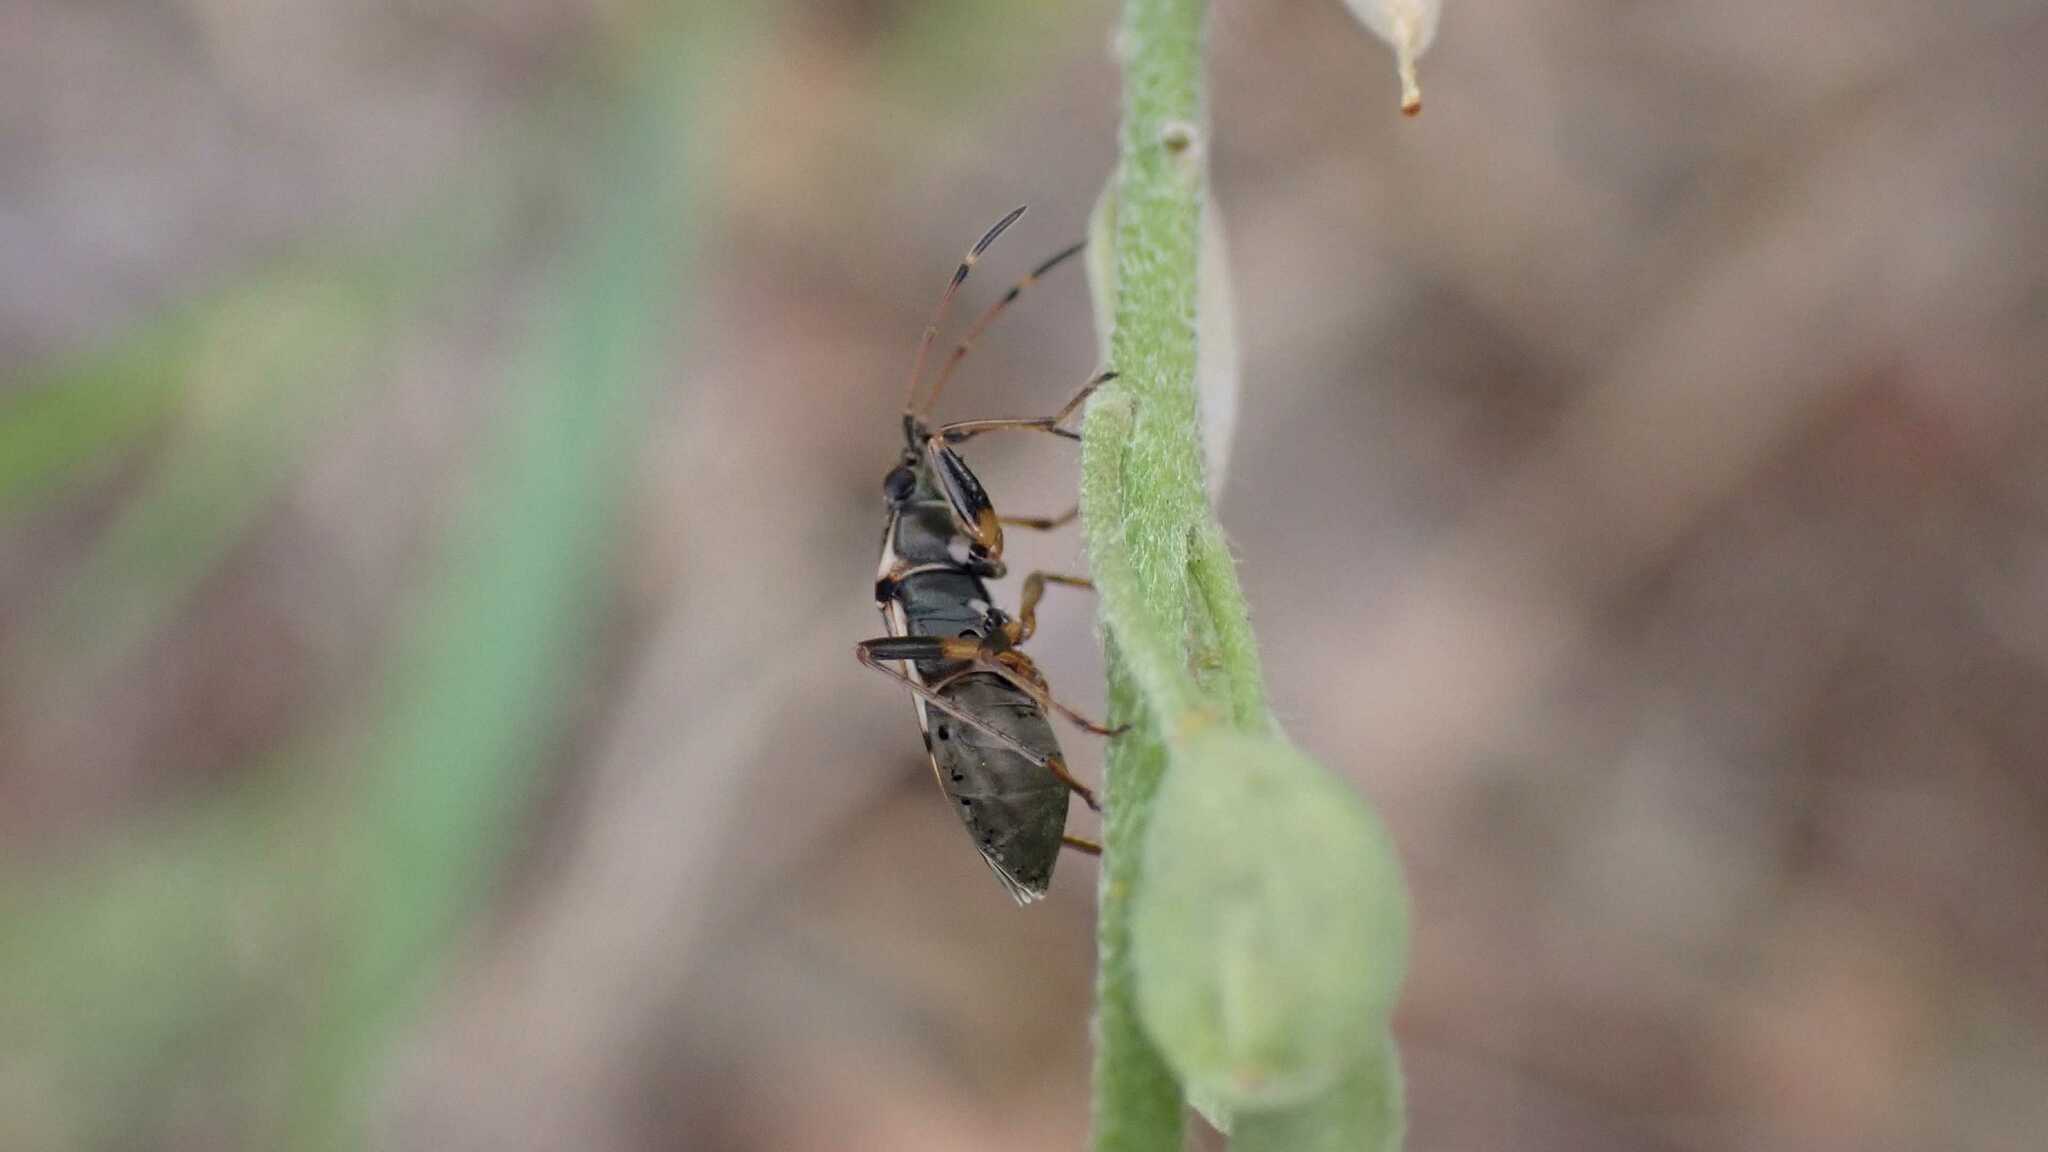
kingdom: Animalia
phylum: Arthropoda
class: Insecta
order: Hemiptera
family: Rhyparochromidae
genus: Beosus
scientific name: Beosus maritimus
